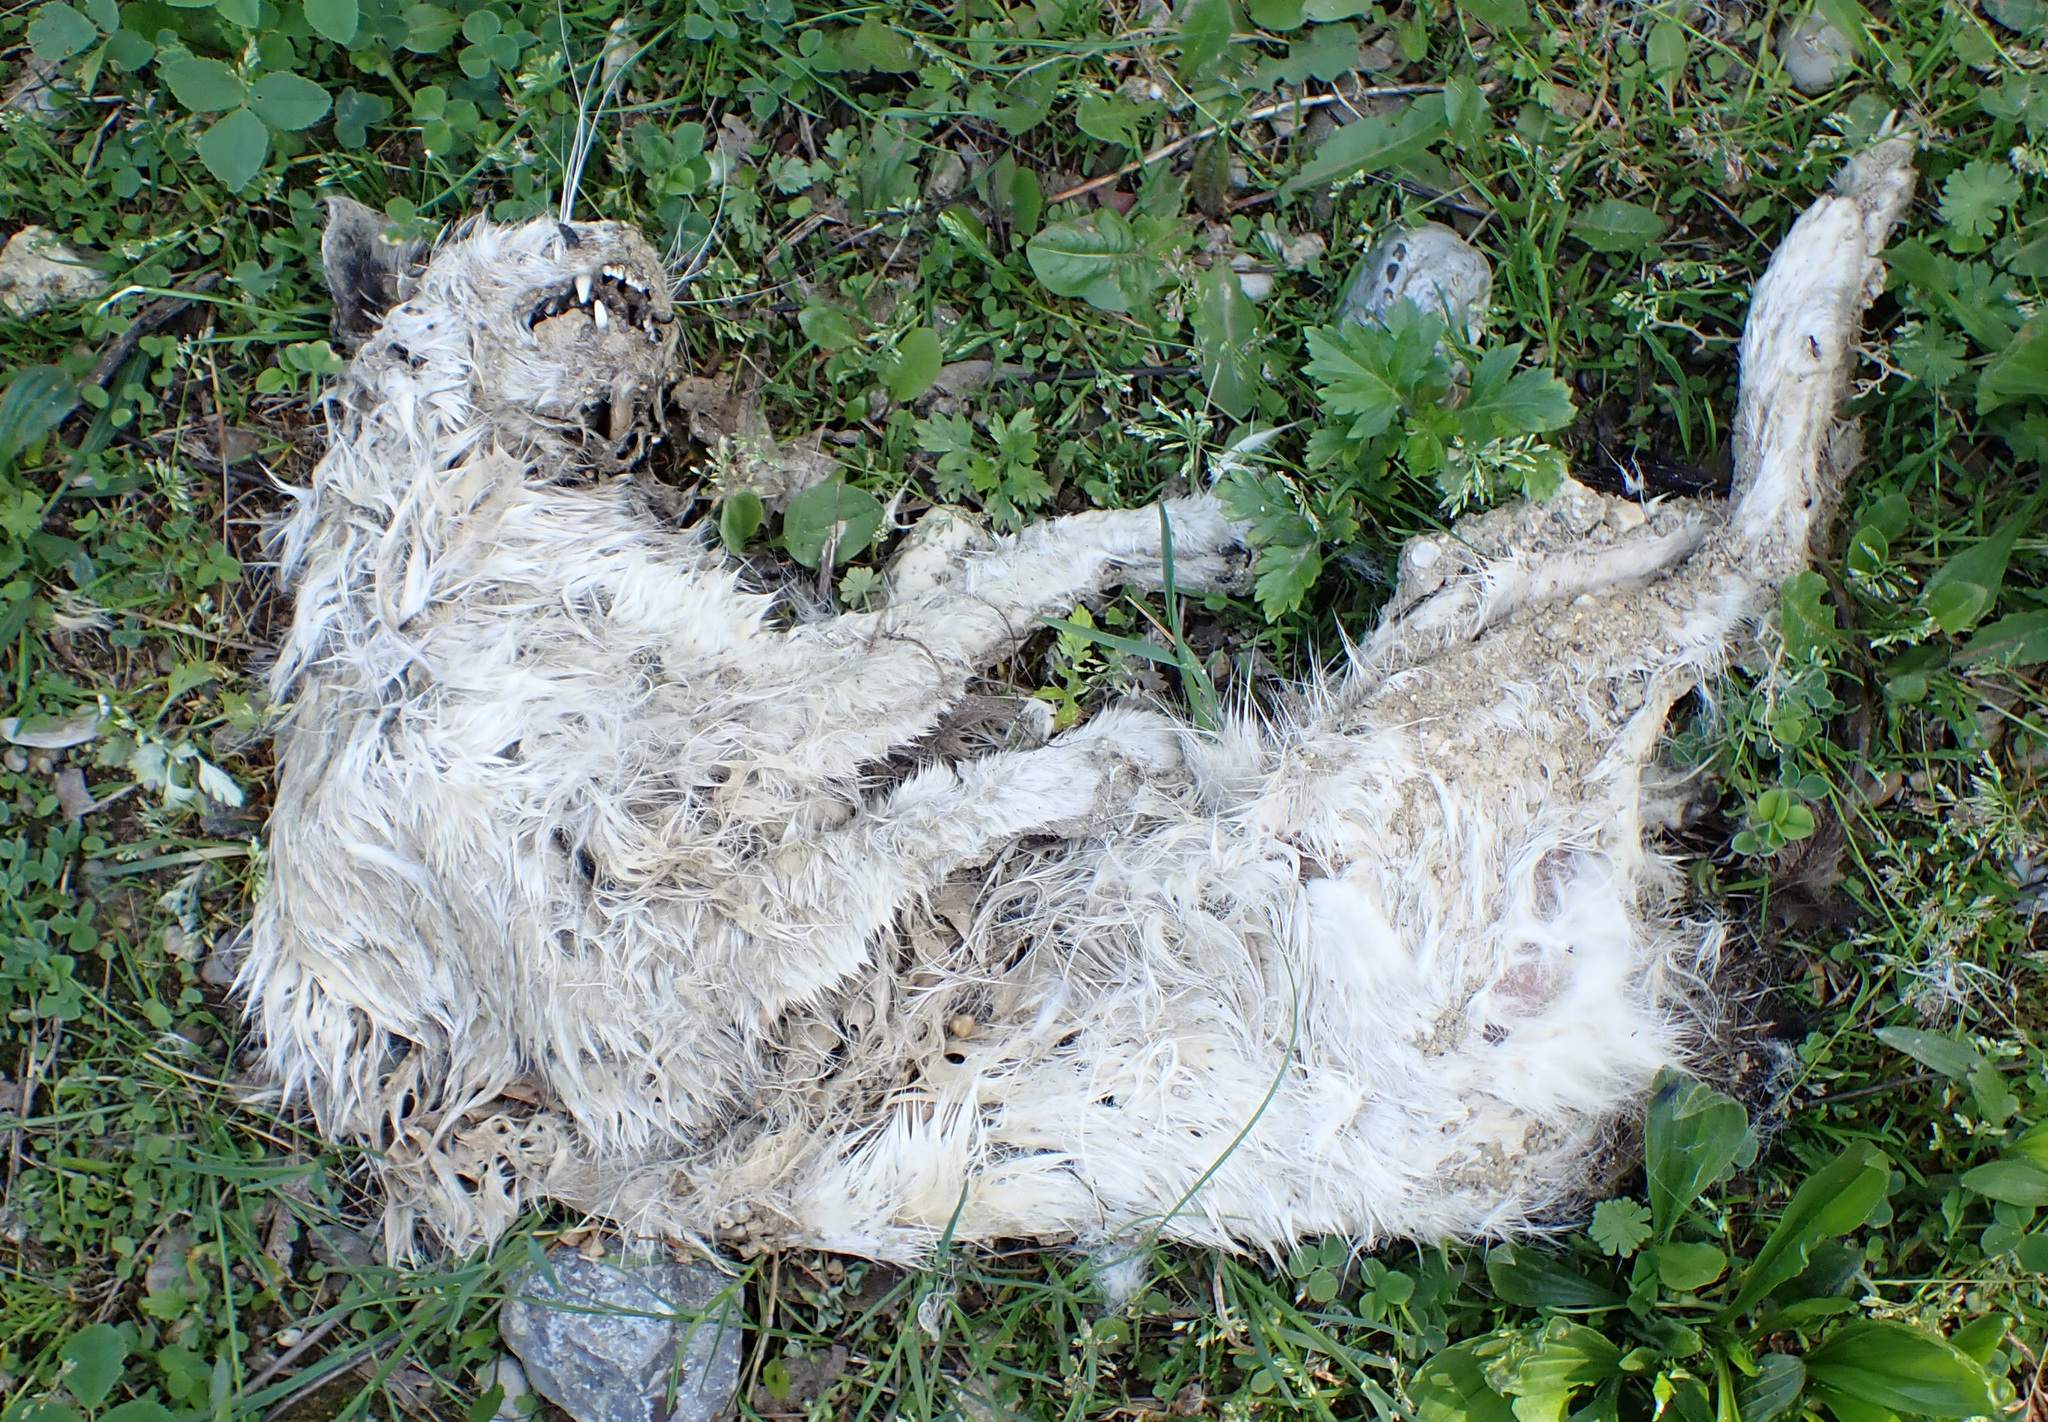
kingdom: Animalia
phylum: Chordata
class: Mammalia
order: Carnivora
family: Felidae
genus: Felis
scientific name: Felis catus
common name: Domestic cat
